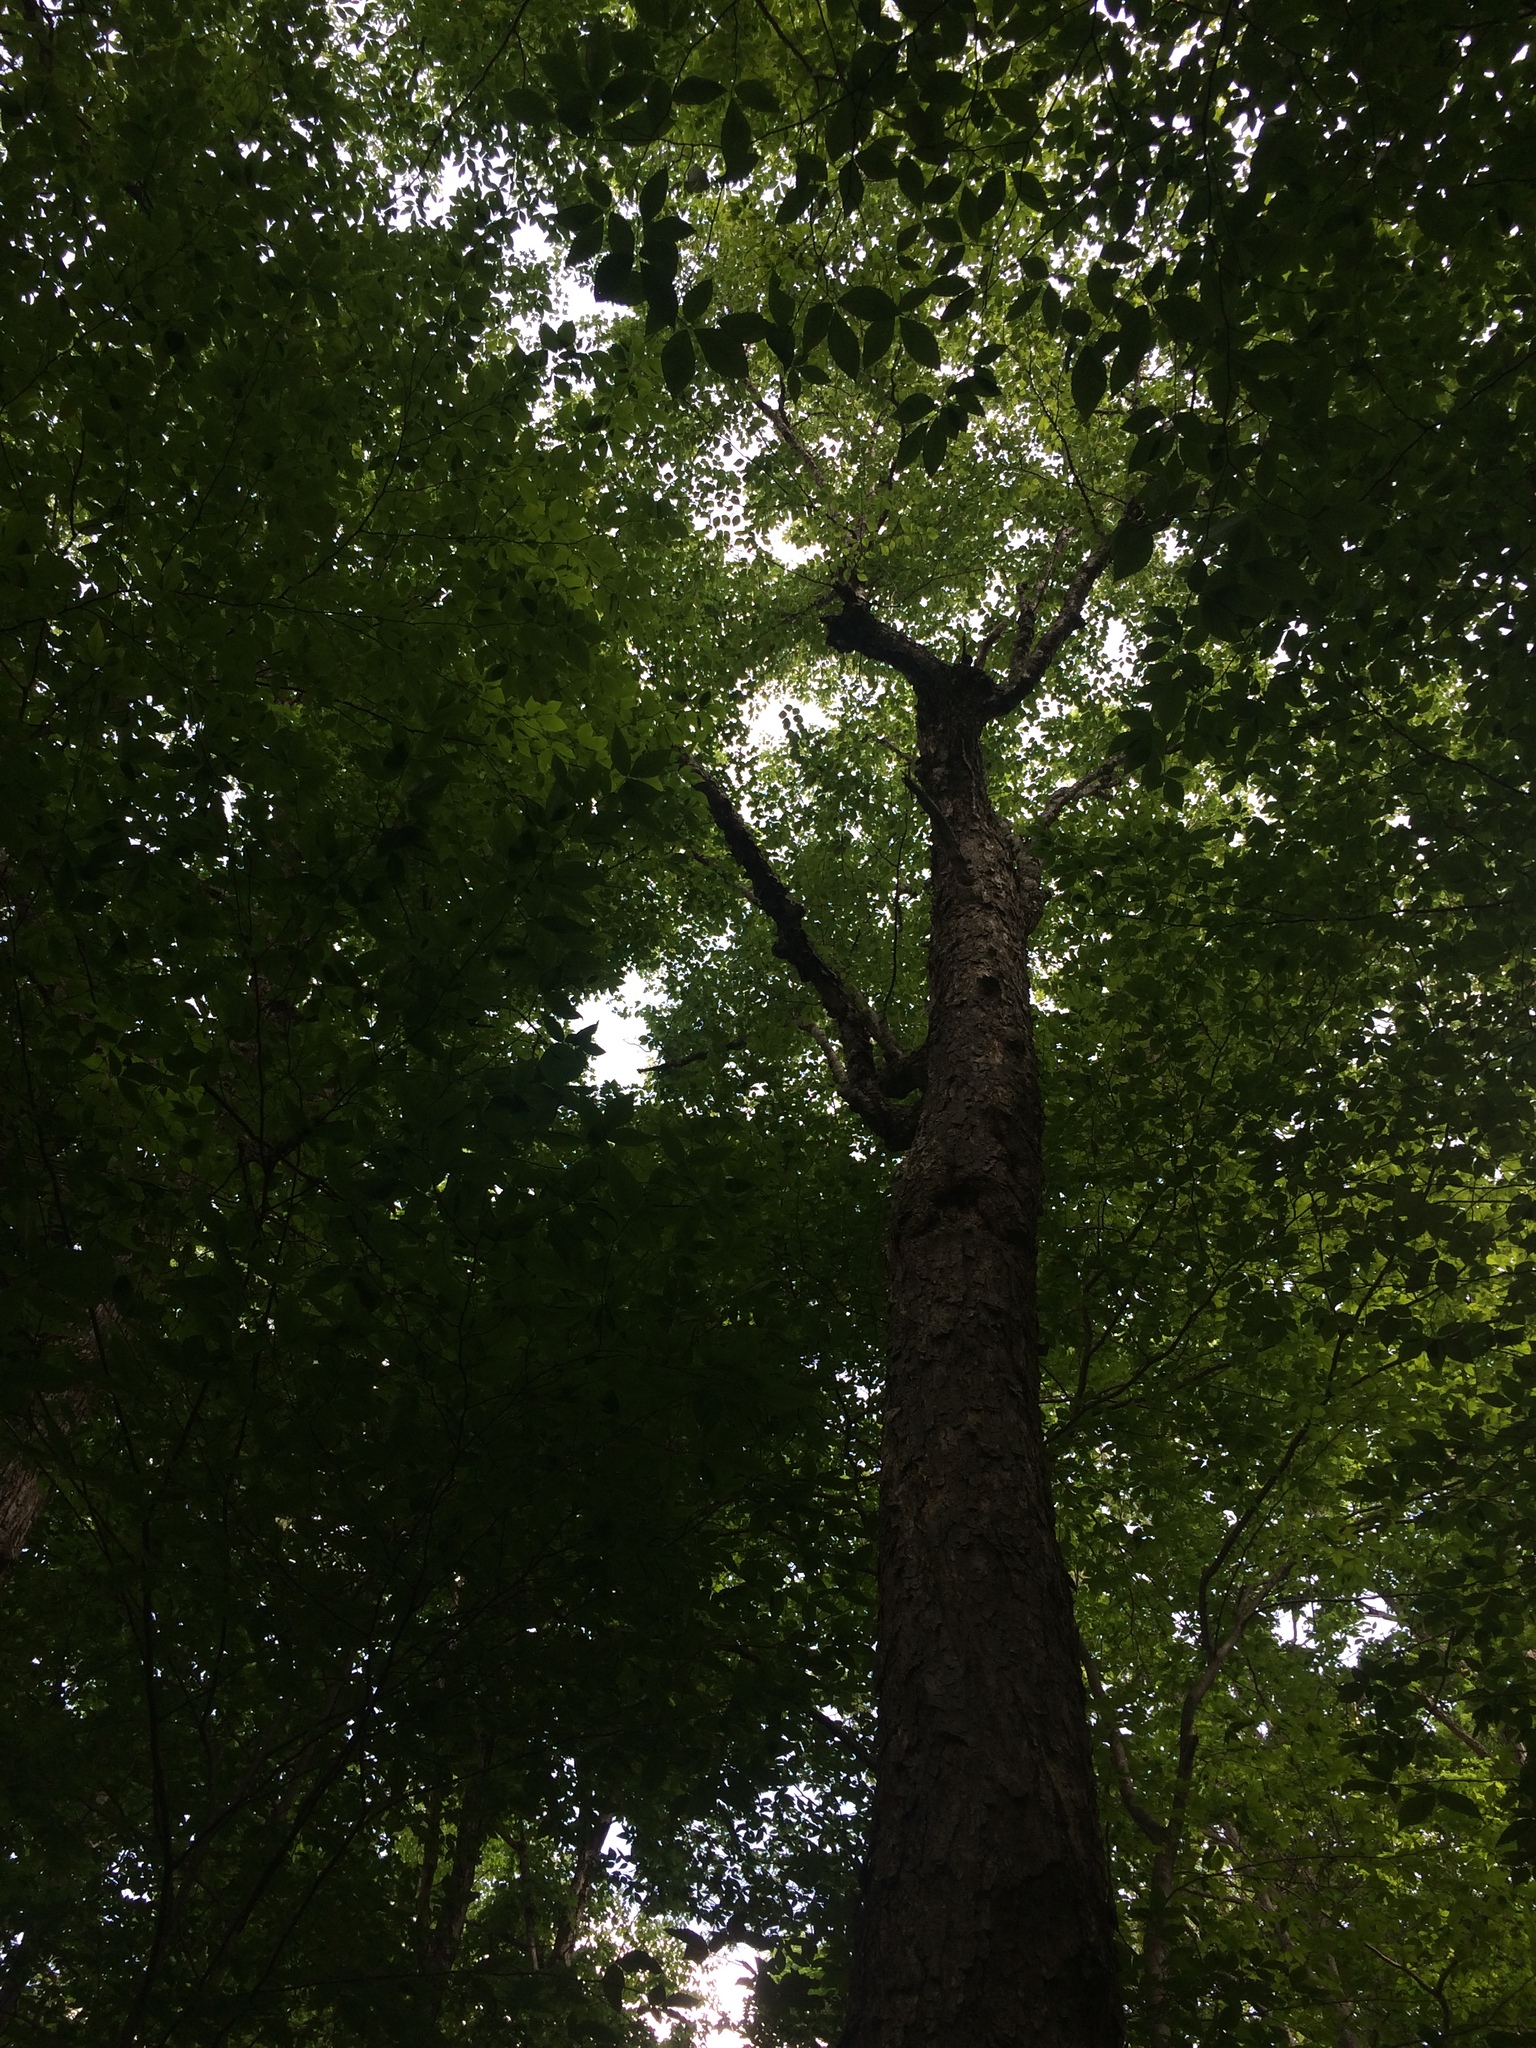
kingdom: Plantae
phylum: Tracheophyta
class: Magnoliopsida
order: Fagales
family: Betulaceae
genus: Betula
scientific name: Betula alleghaniensis
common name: Yellow birch
